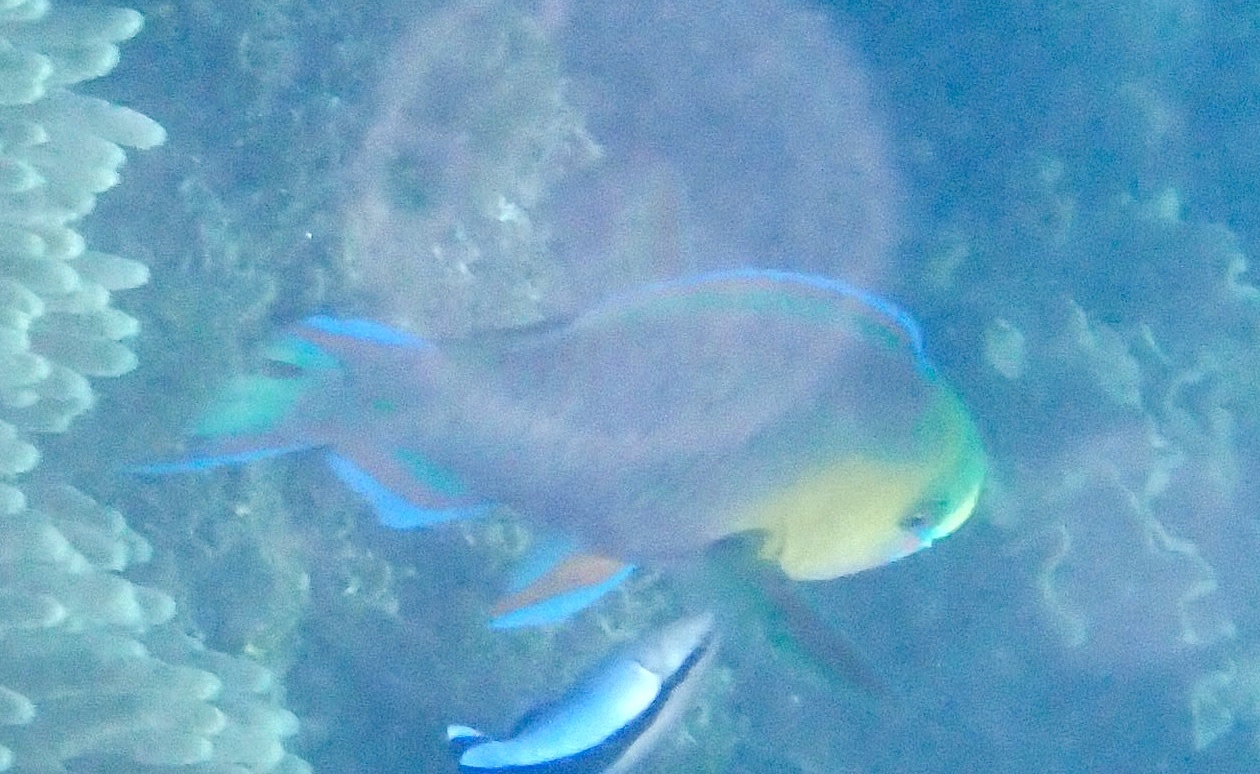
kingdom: Animalia
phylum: Chordata
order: Perciformes
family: Scaridae
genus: Scarus
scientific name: Scarus spinus
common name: Greensnout parrotfish
